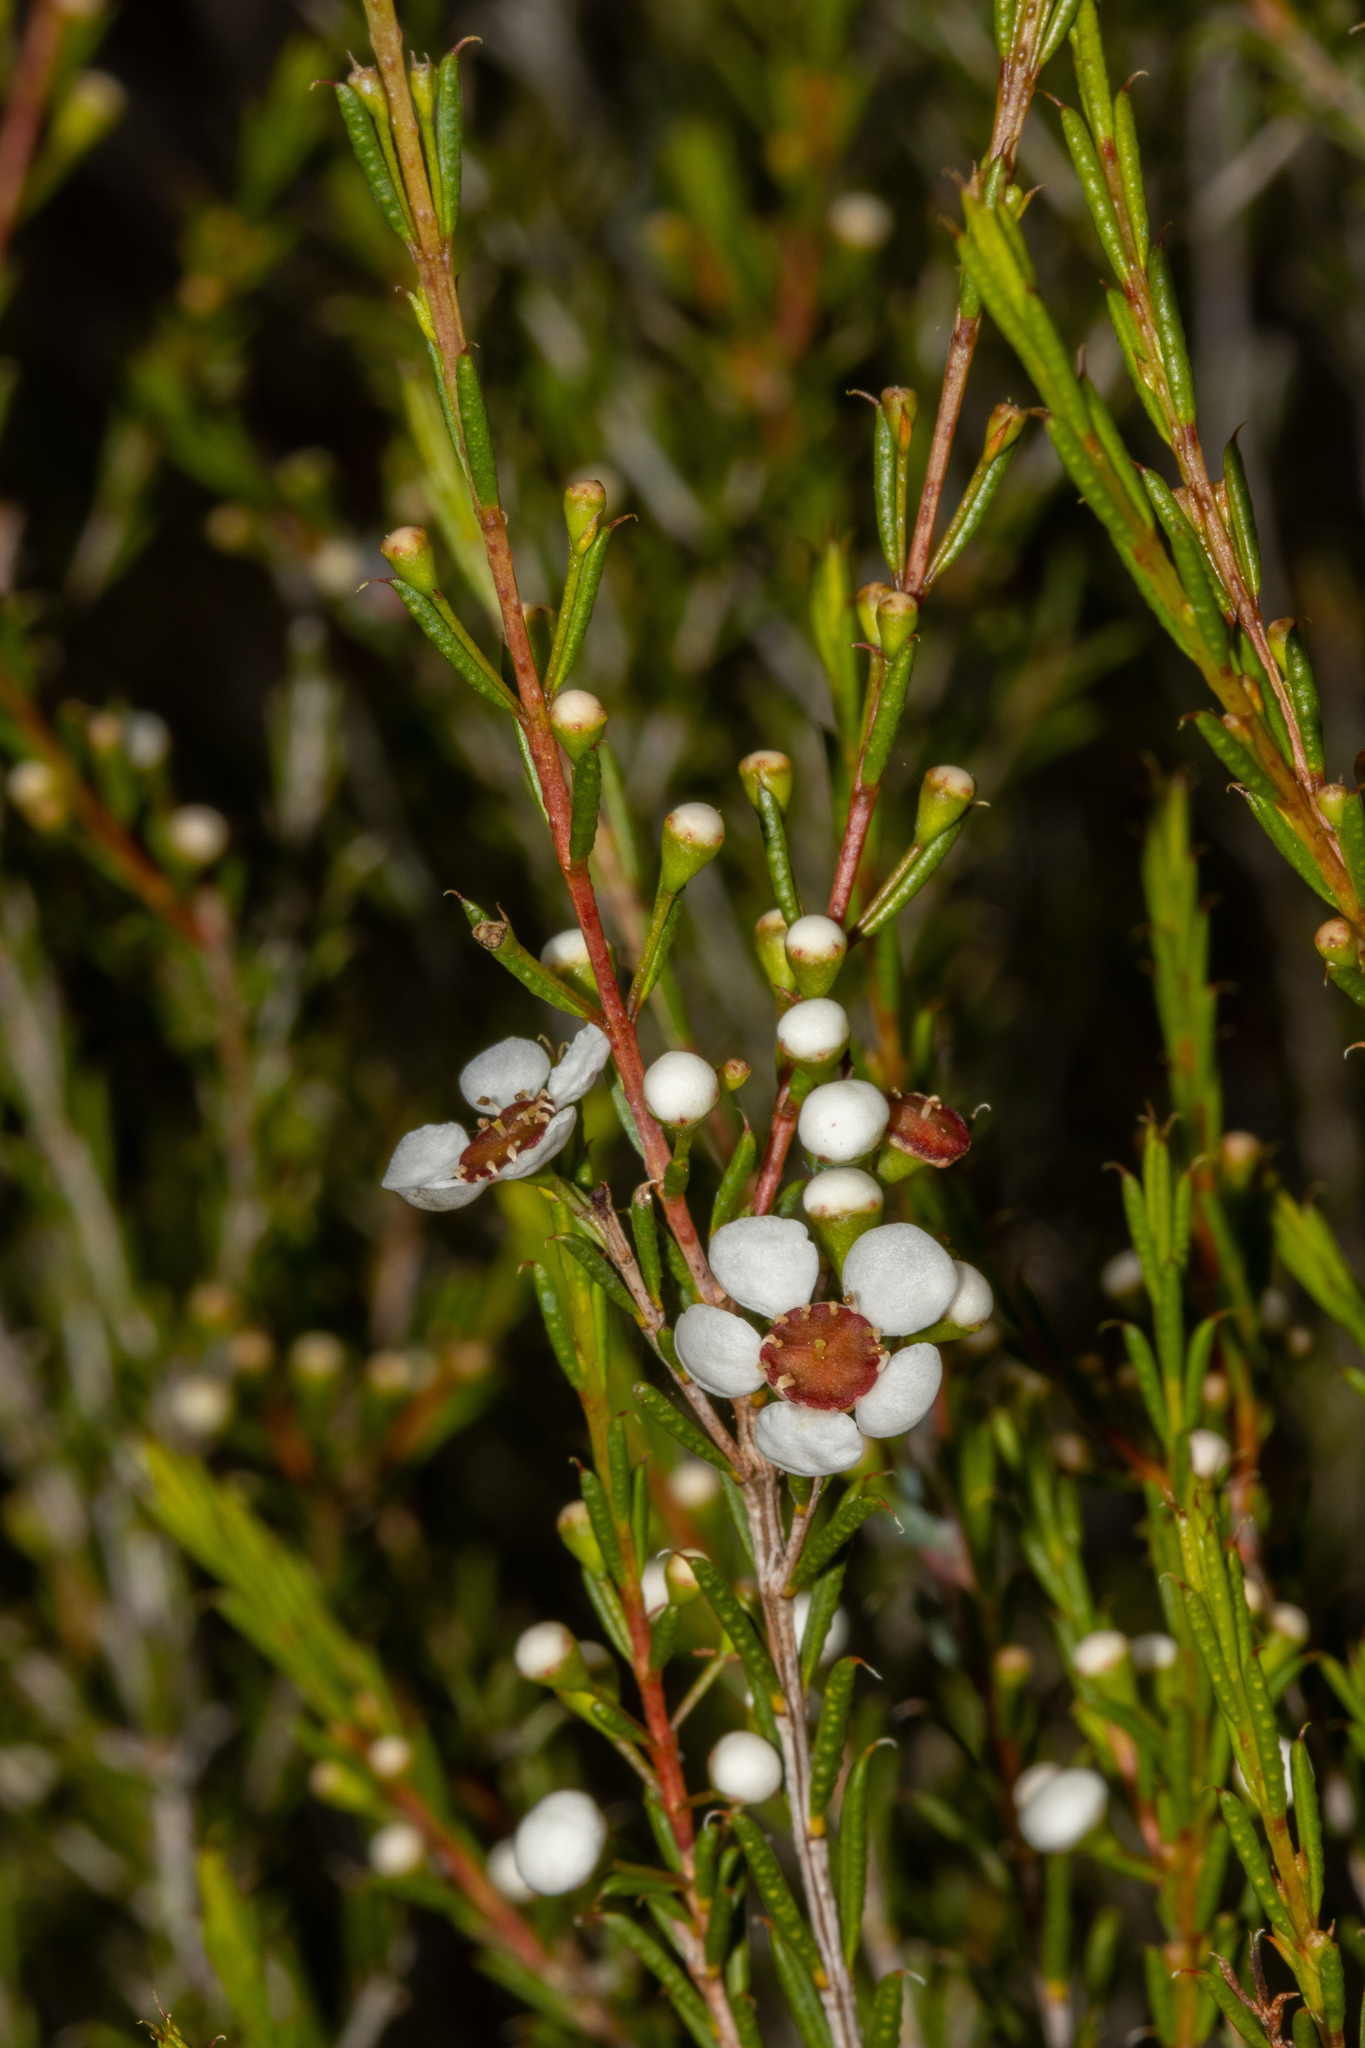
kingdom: Plantae
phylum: Tracheophyta
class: Magnoliopsida
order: Myrtales
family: Myrtaceae
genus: Hysterobaeckea
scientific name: Hysterobaeckea behrii
